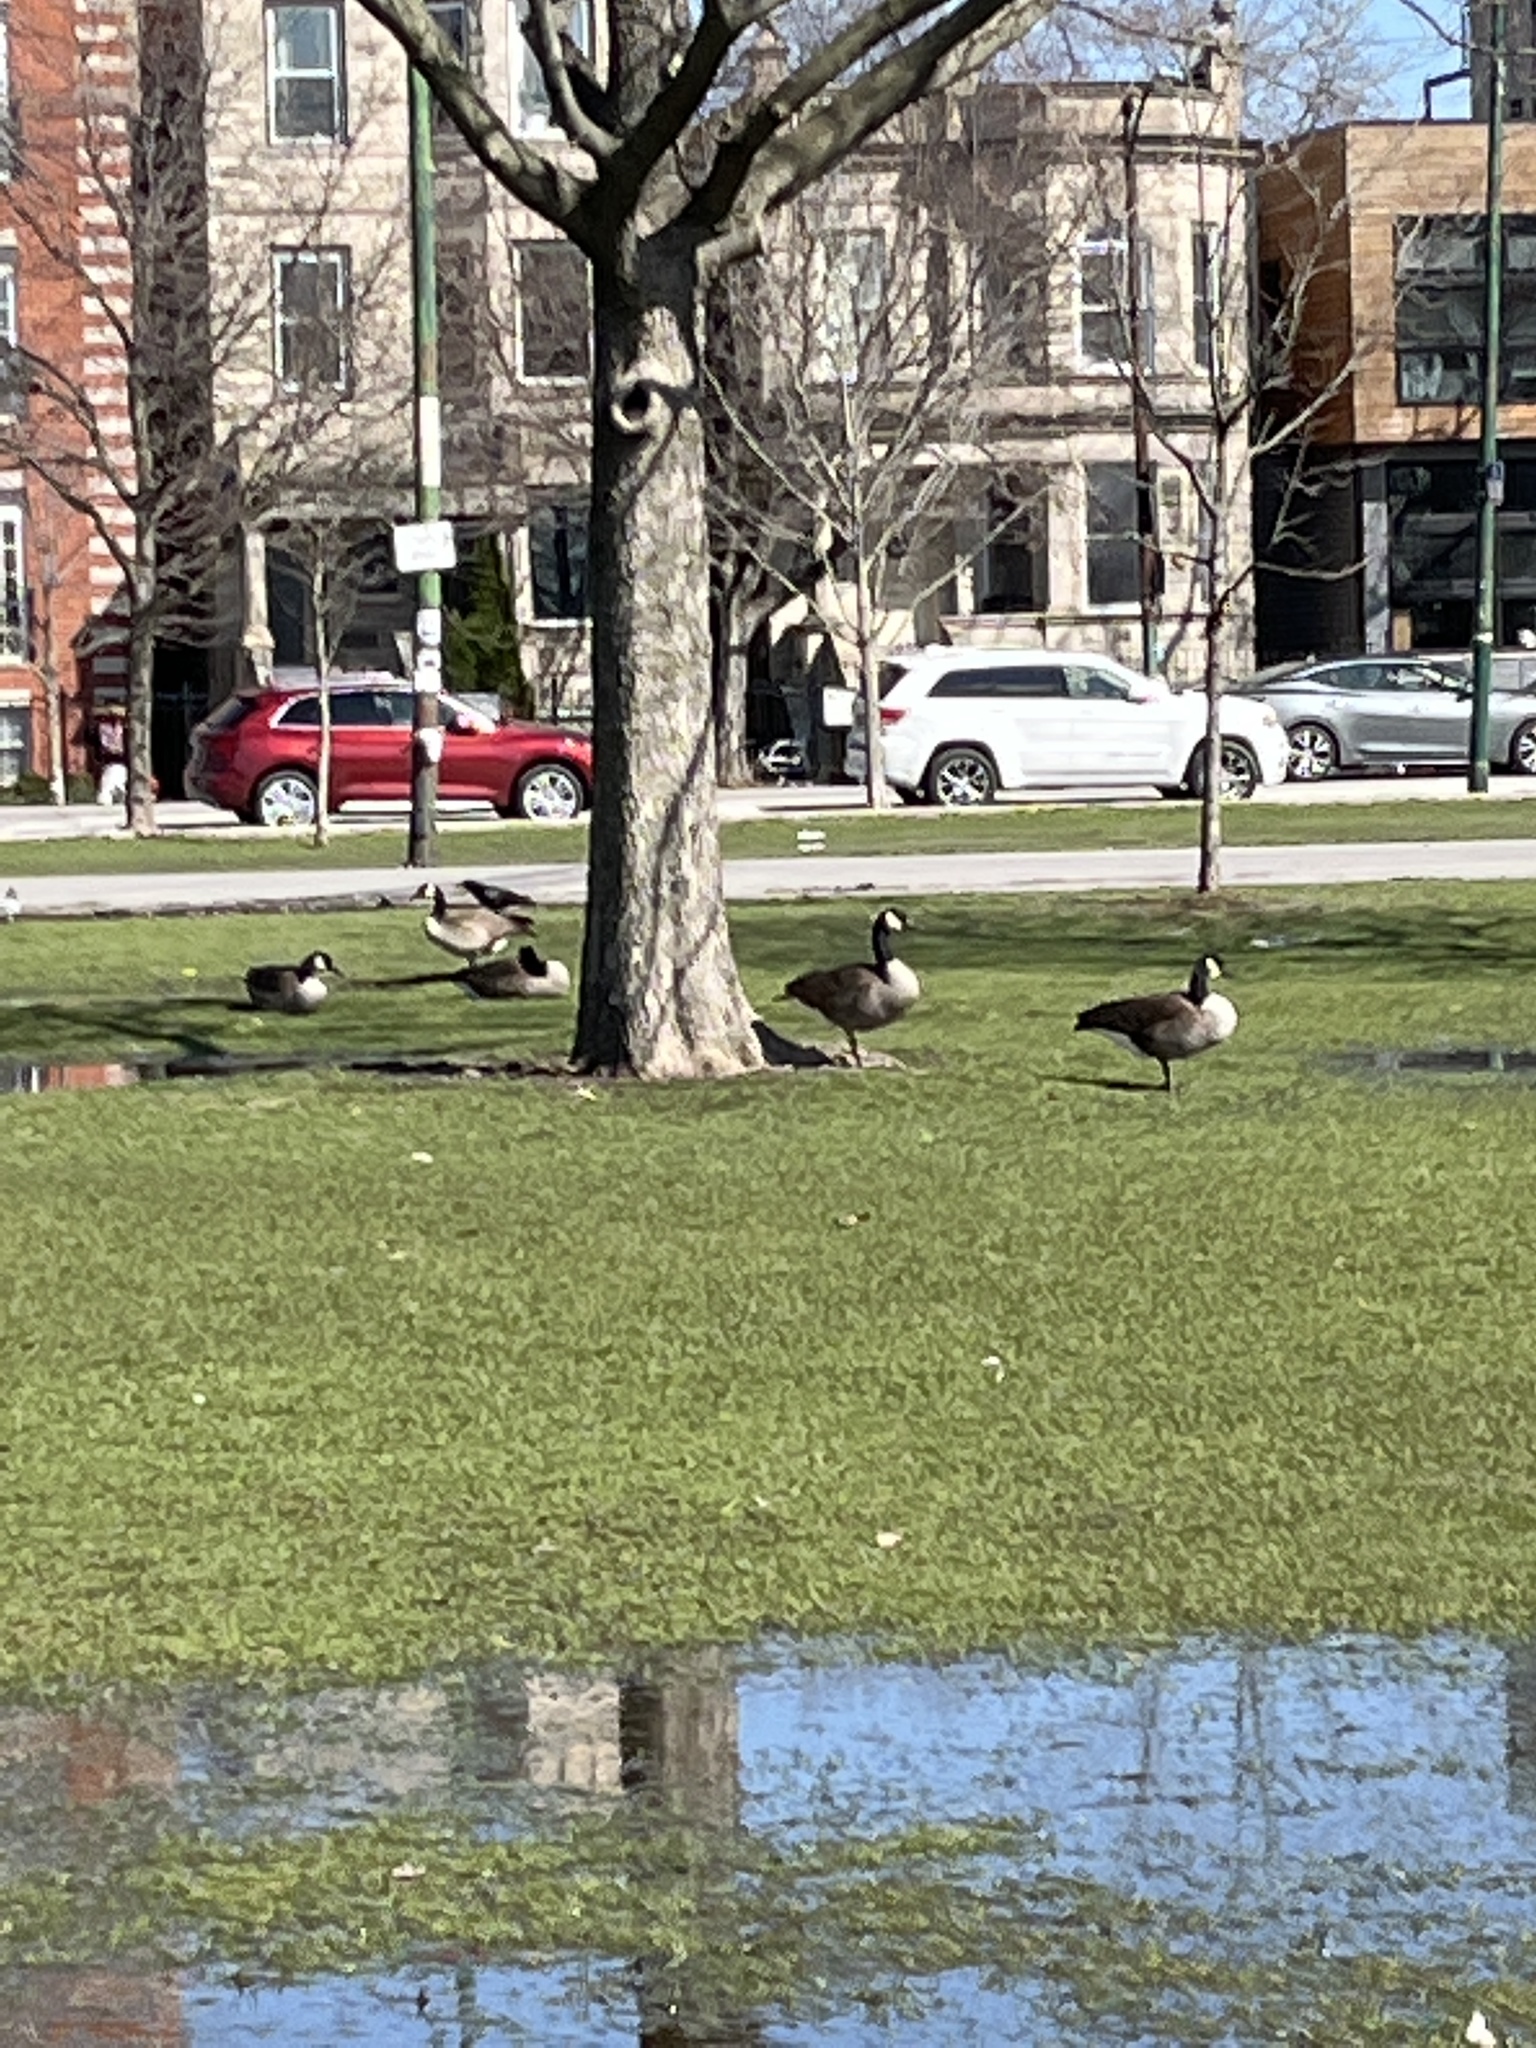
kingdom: Animalia
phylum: Chordata
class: Aves
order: Anseriformes
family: Anatidae
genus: Branta
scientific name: Branta canadensis
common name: Canada goose
